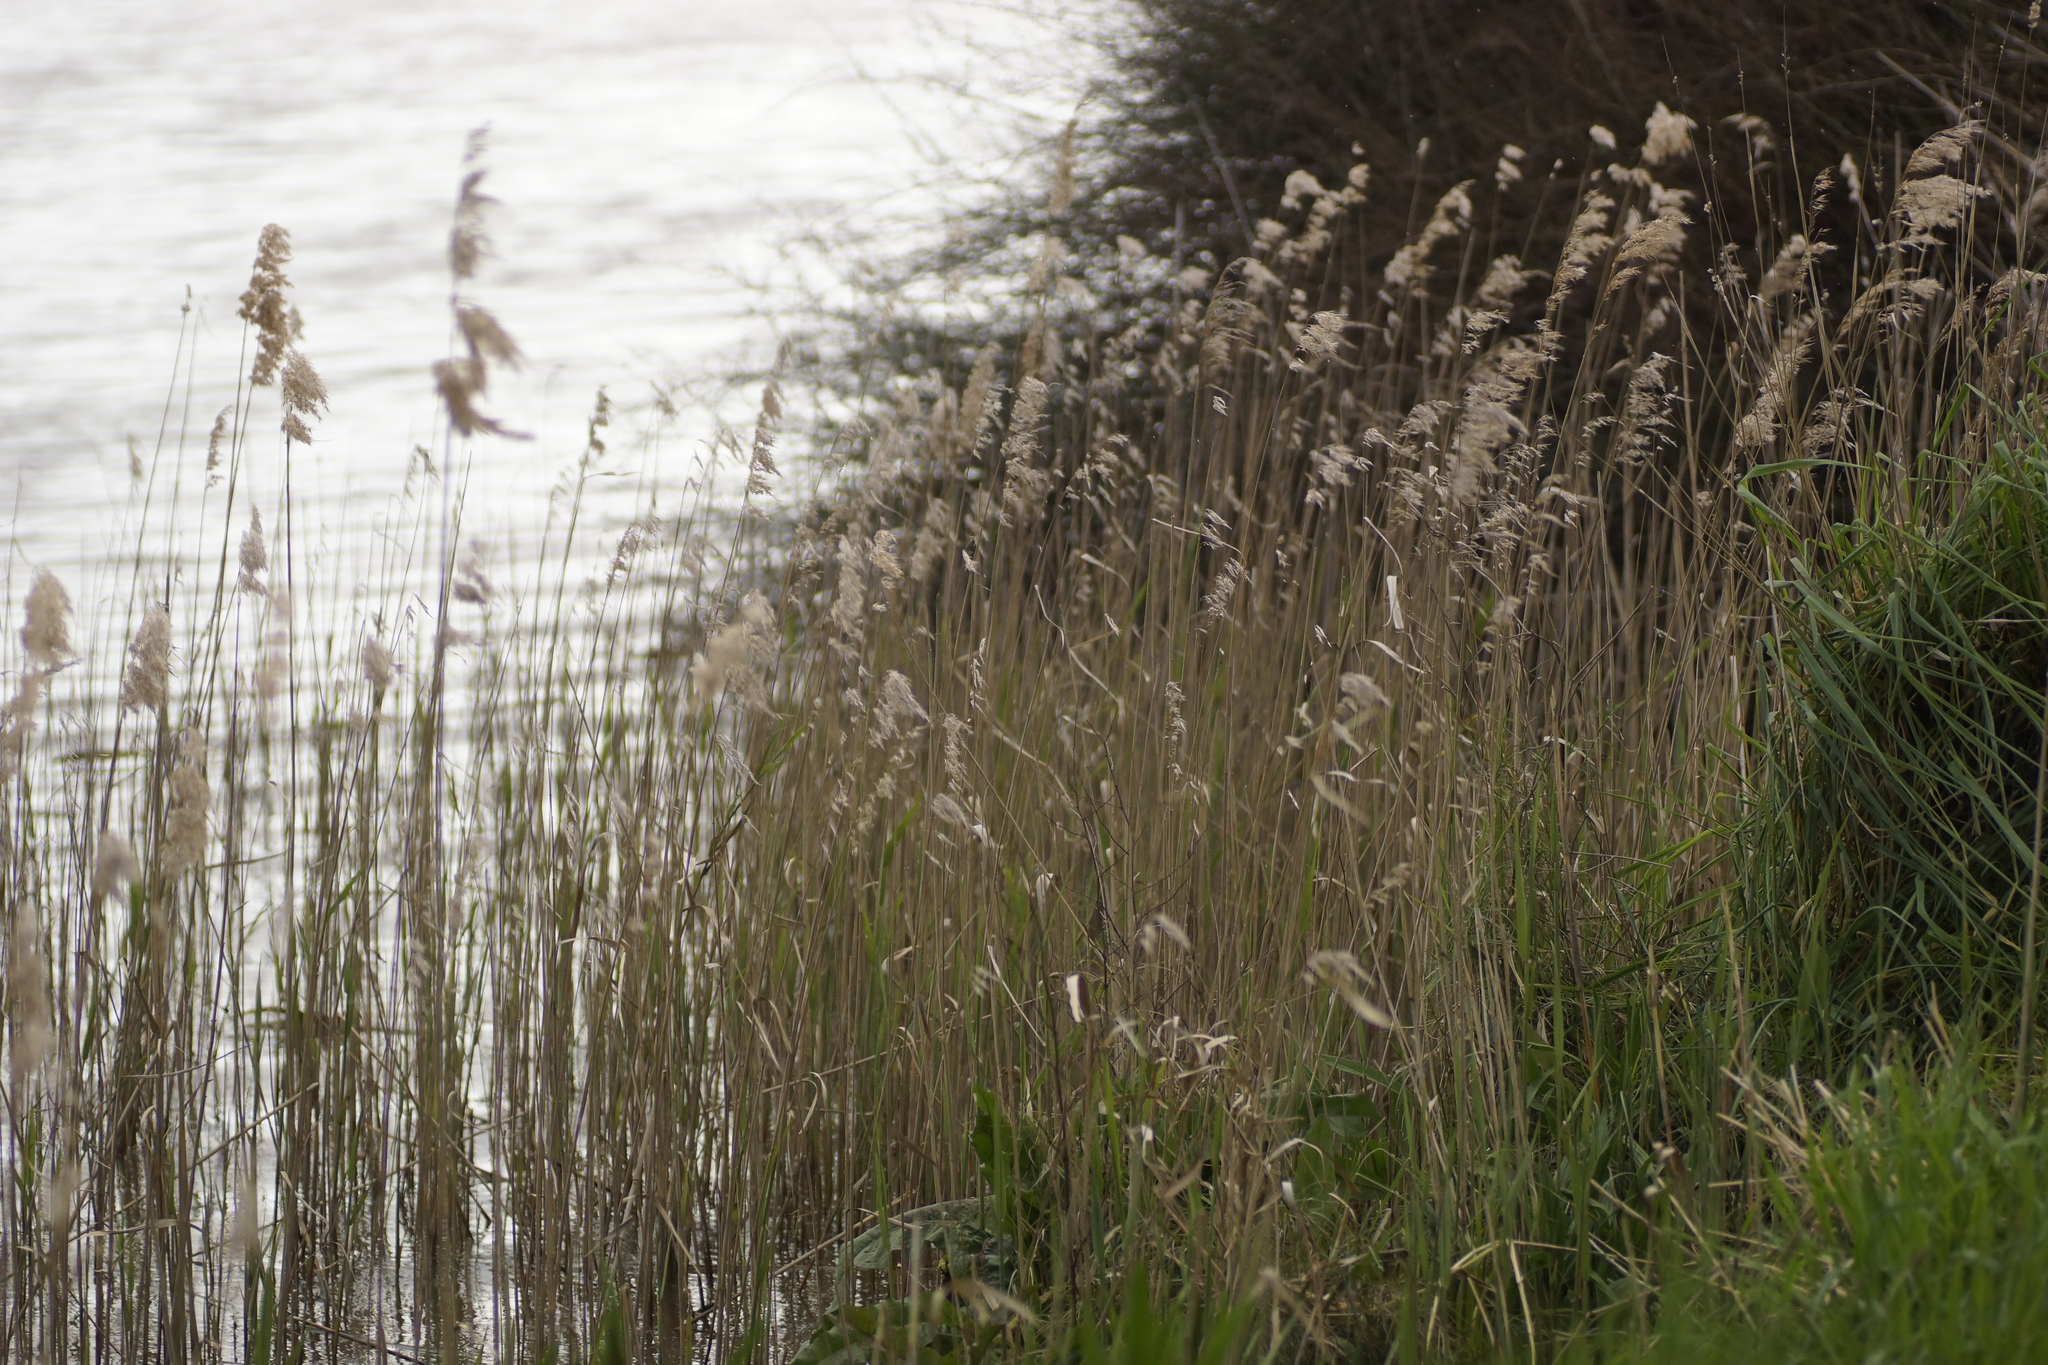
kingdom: Plantae
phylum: Tracheophyta
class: Liliopsida
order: Poales
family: Poaceae
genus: Phragmites
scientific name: Phragmites australis
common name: Common reed
